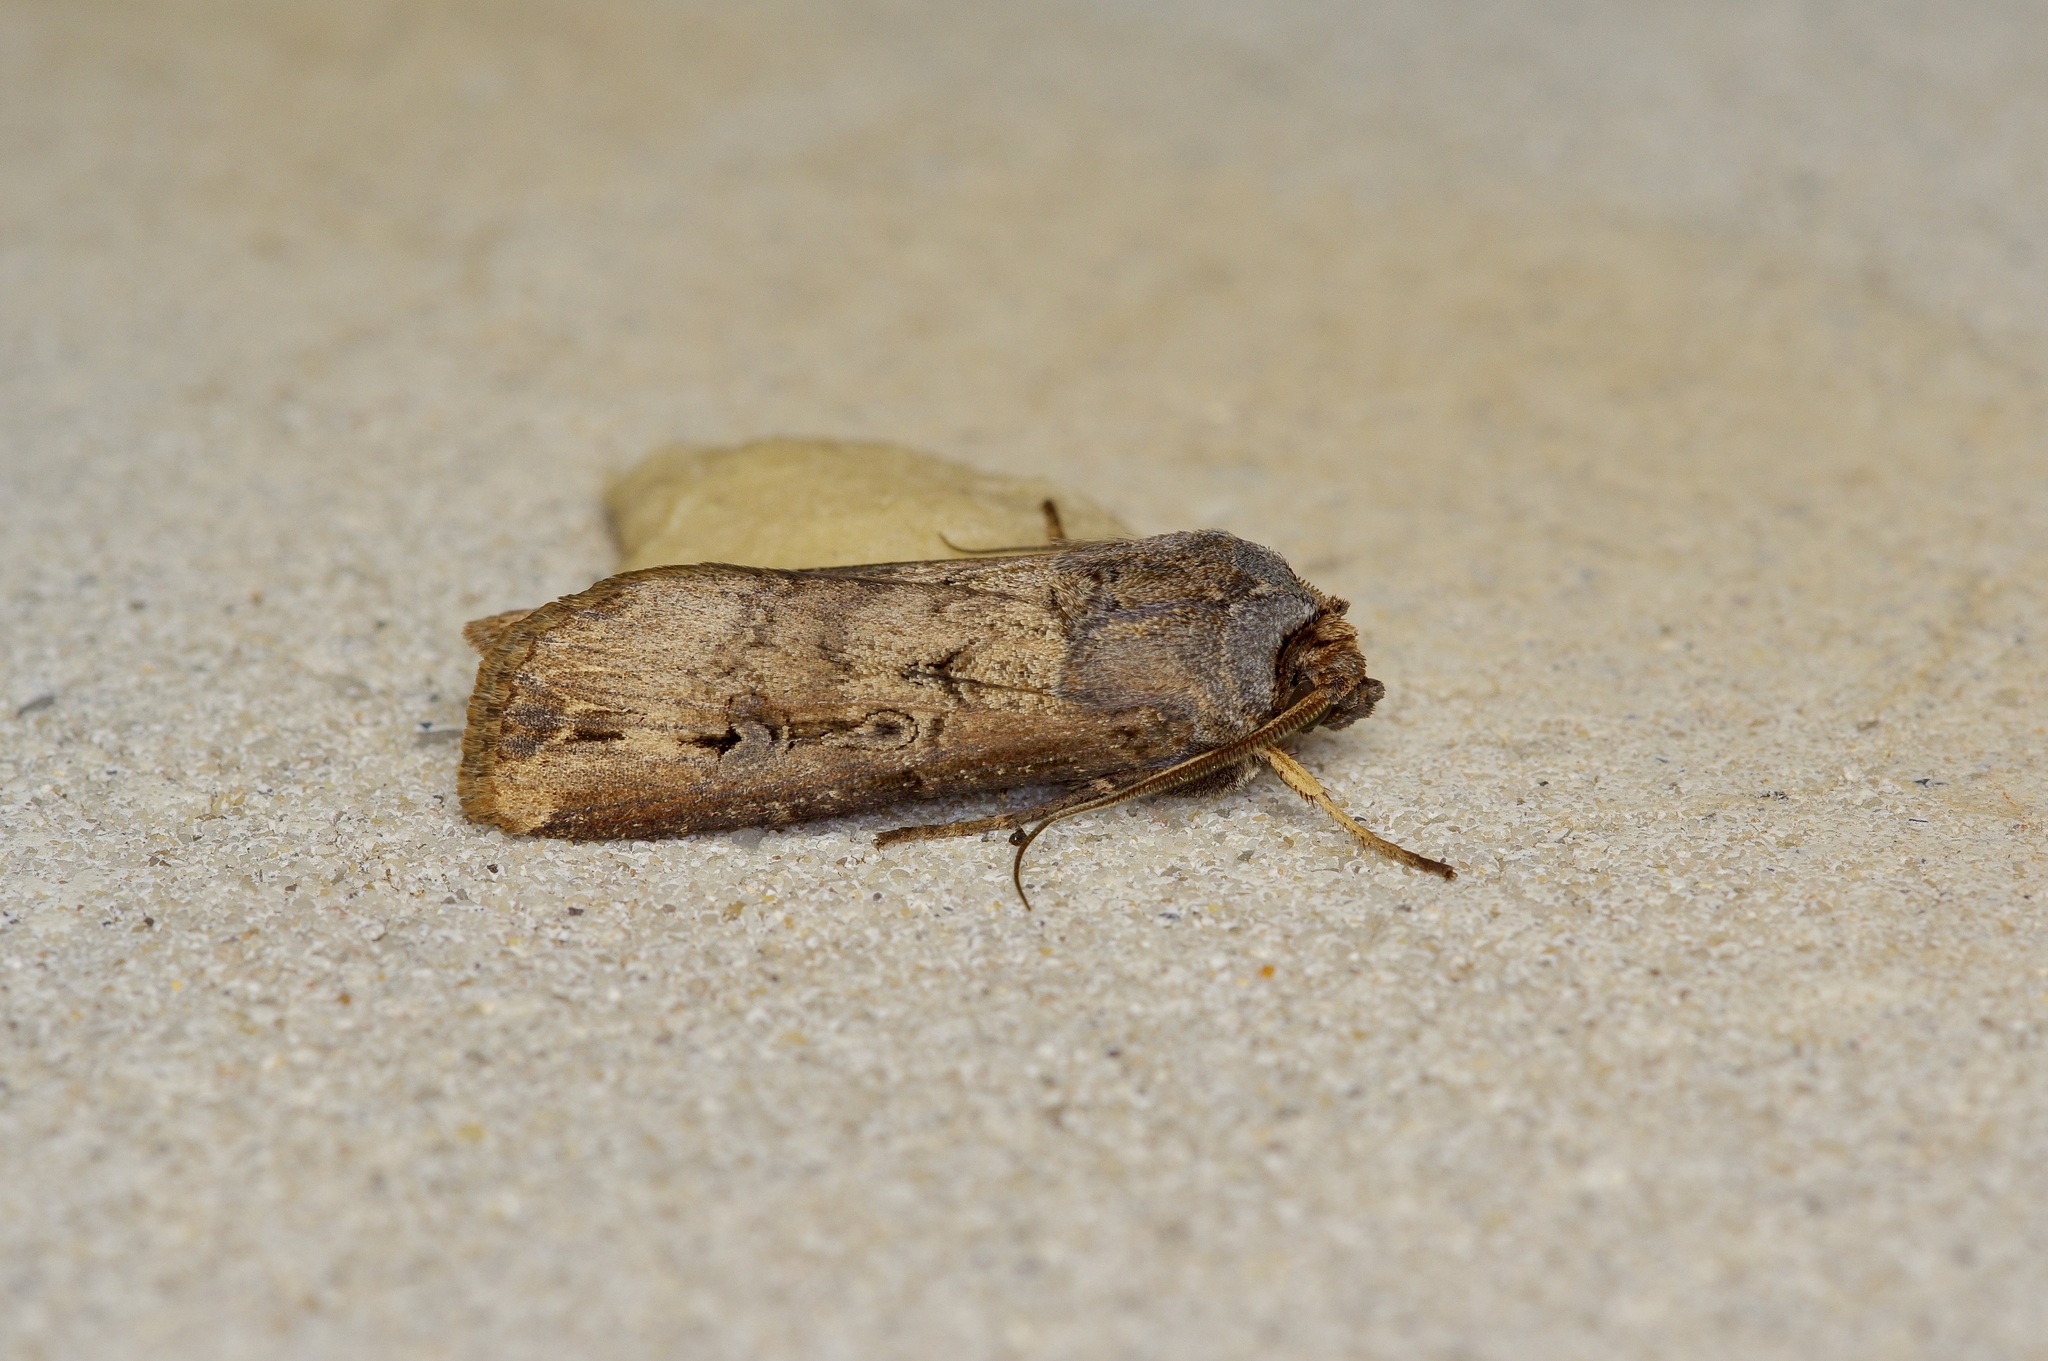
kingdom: Animalia
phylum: Arthropoda
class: Insecta
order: Lepidoptera
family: Noctuidae
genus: Agrotis
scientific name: Agrotis ipsilon
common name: Dark sword-grass
